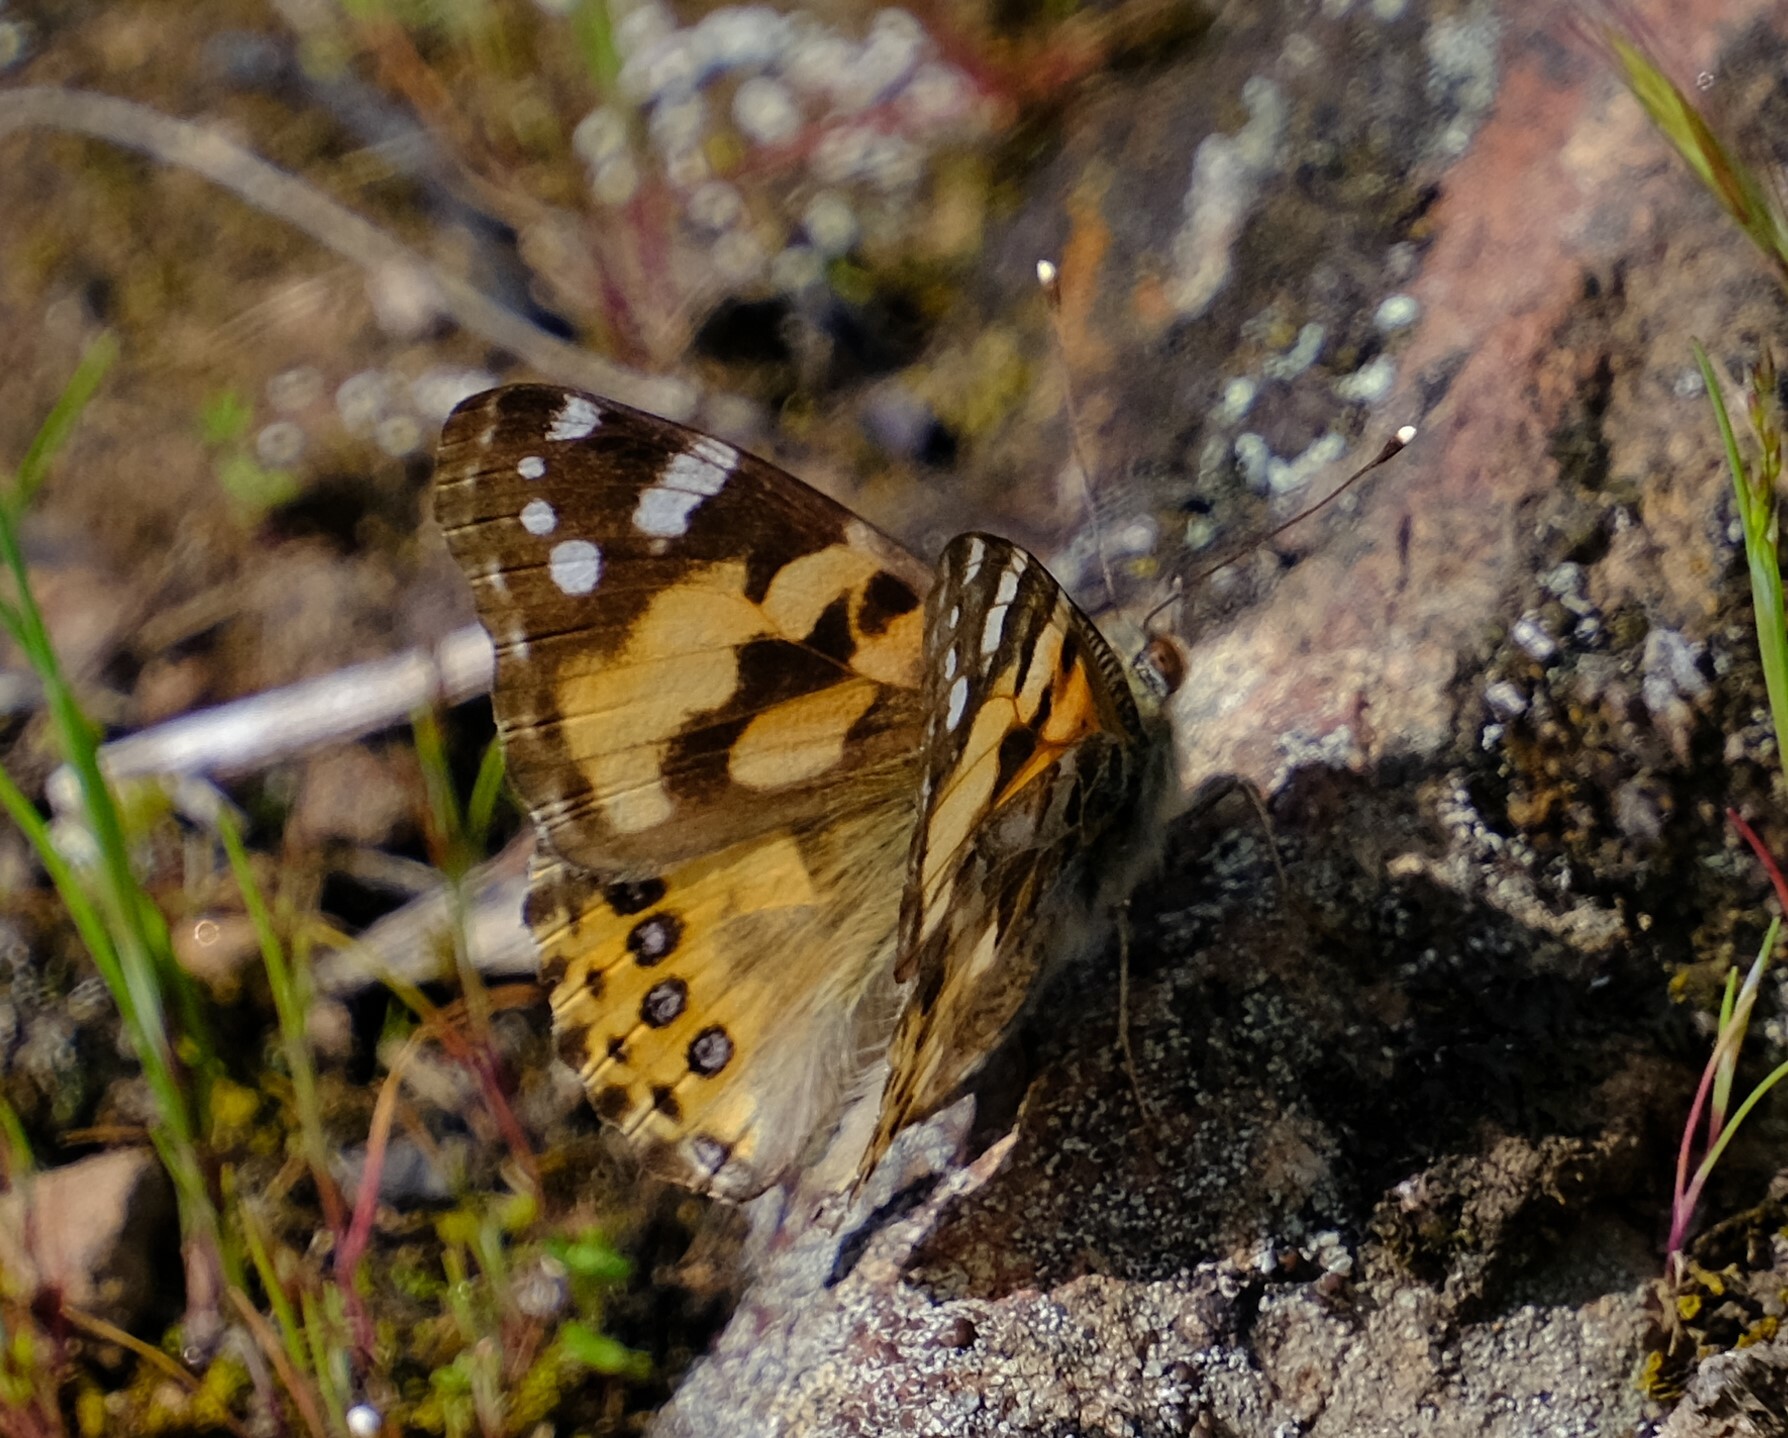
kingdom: Animalia
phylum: Arthropoda
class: Insecta
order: Lepidoptera
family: Nymphalidae
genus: Vanessa
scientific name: Vanessa kershawi
